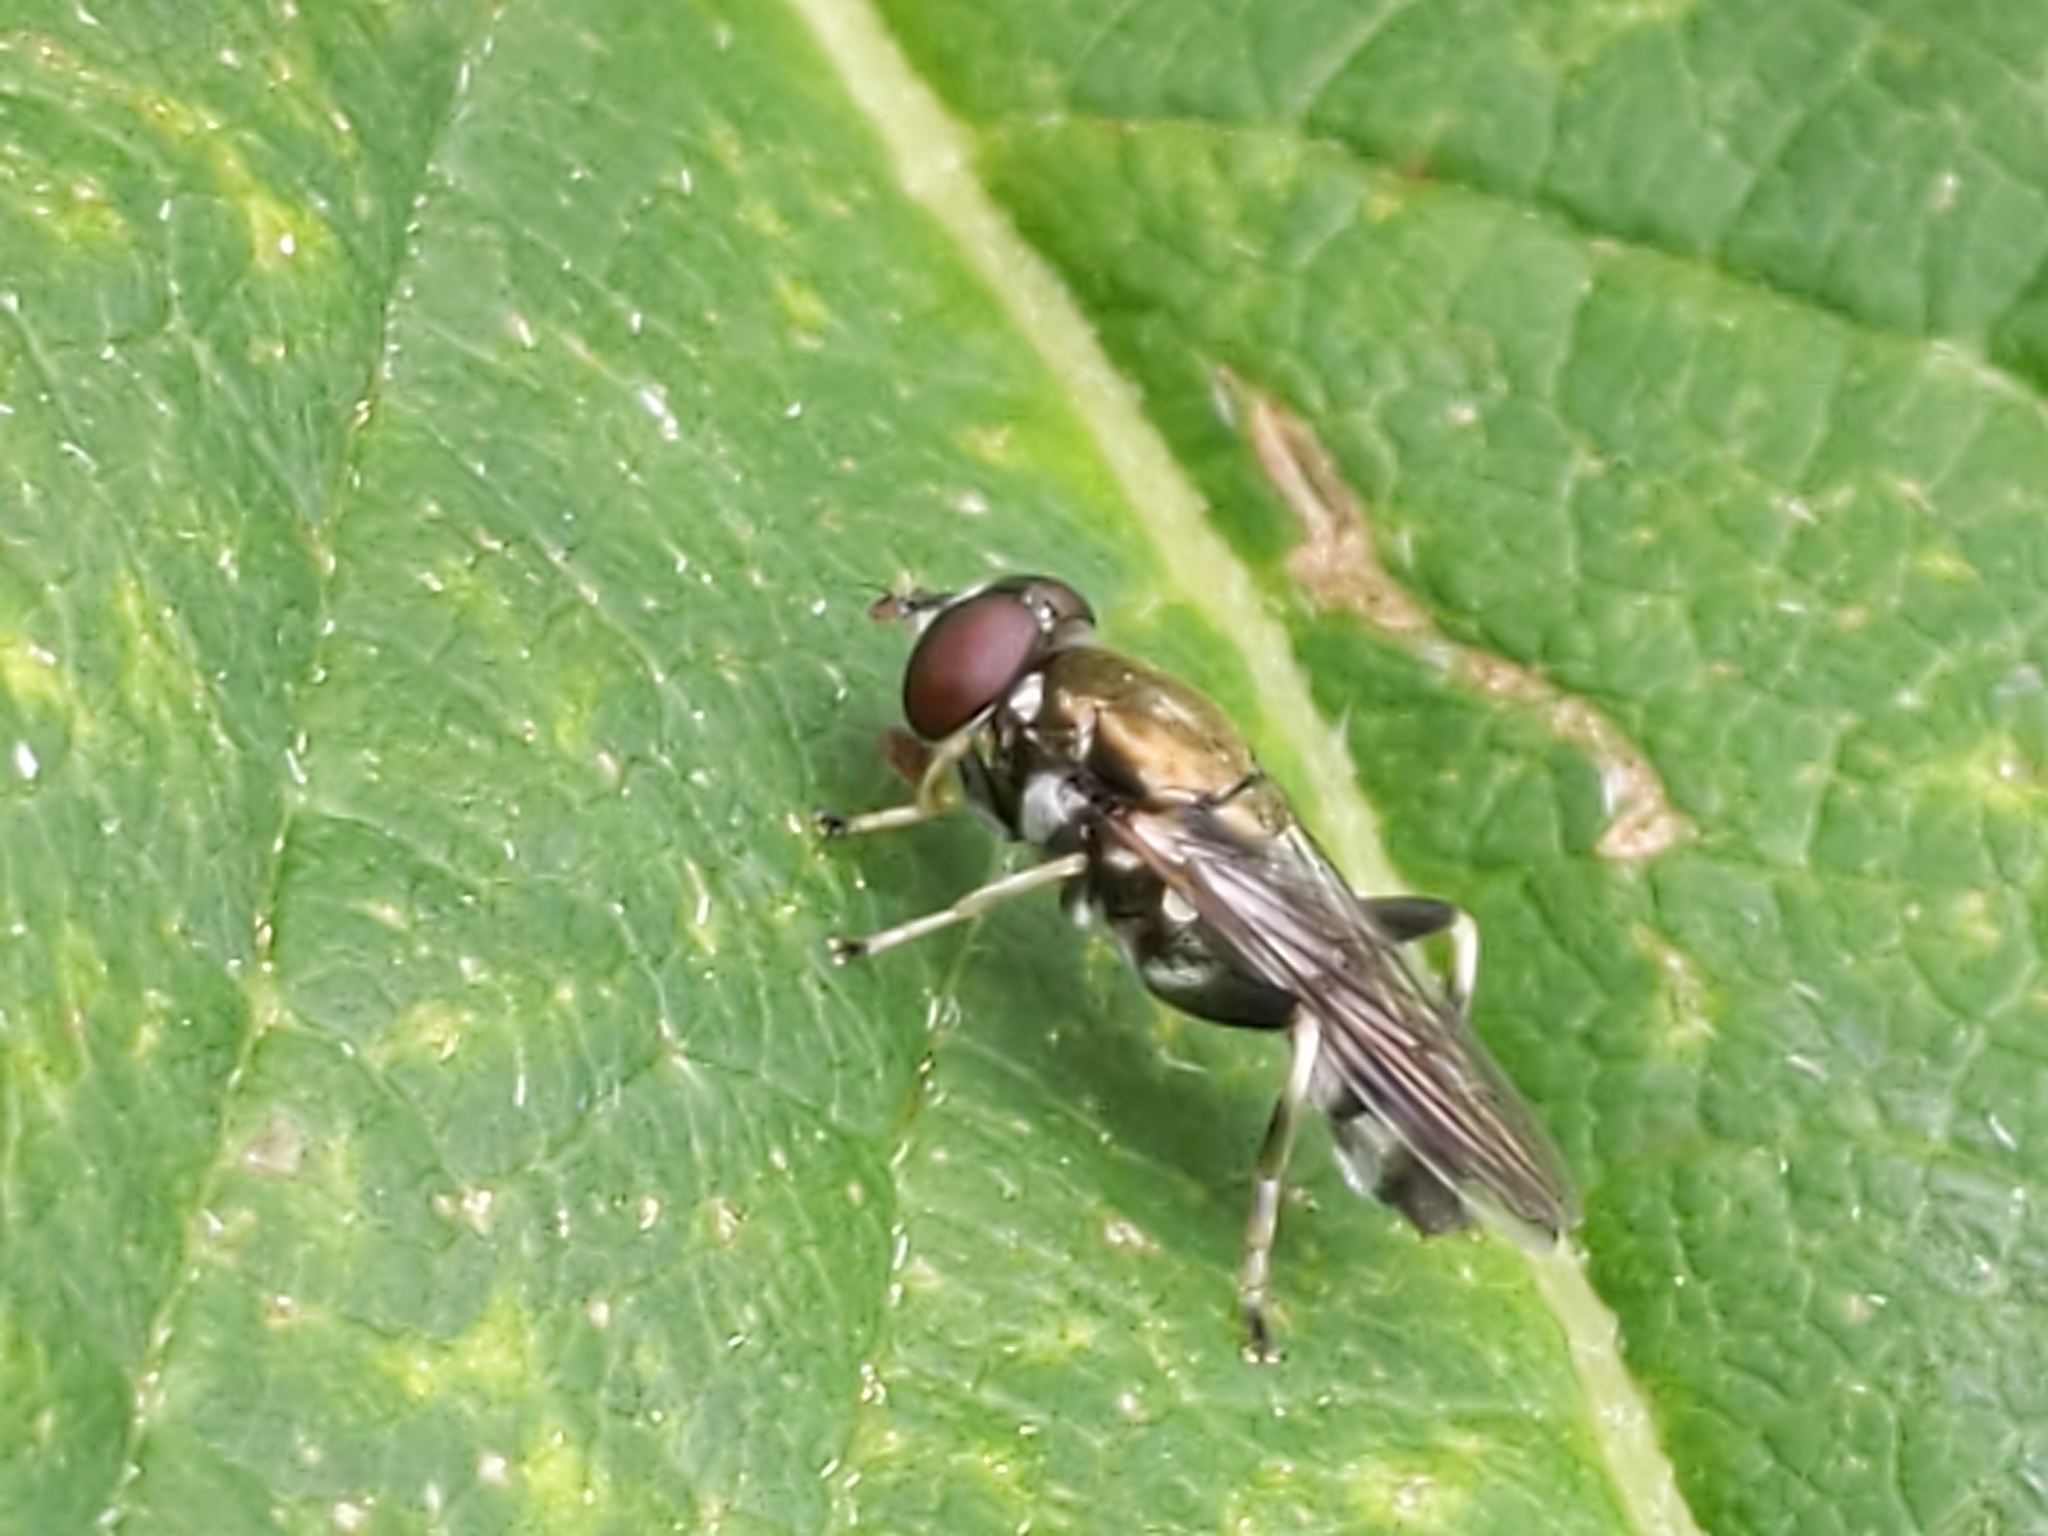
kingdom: Animalia
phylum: Arthropoda
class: Insecta
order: Diptera
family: Syrphidae
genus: Xylota
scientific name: Xylota
